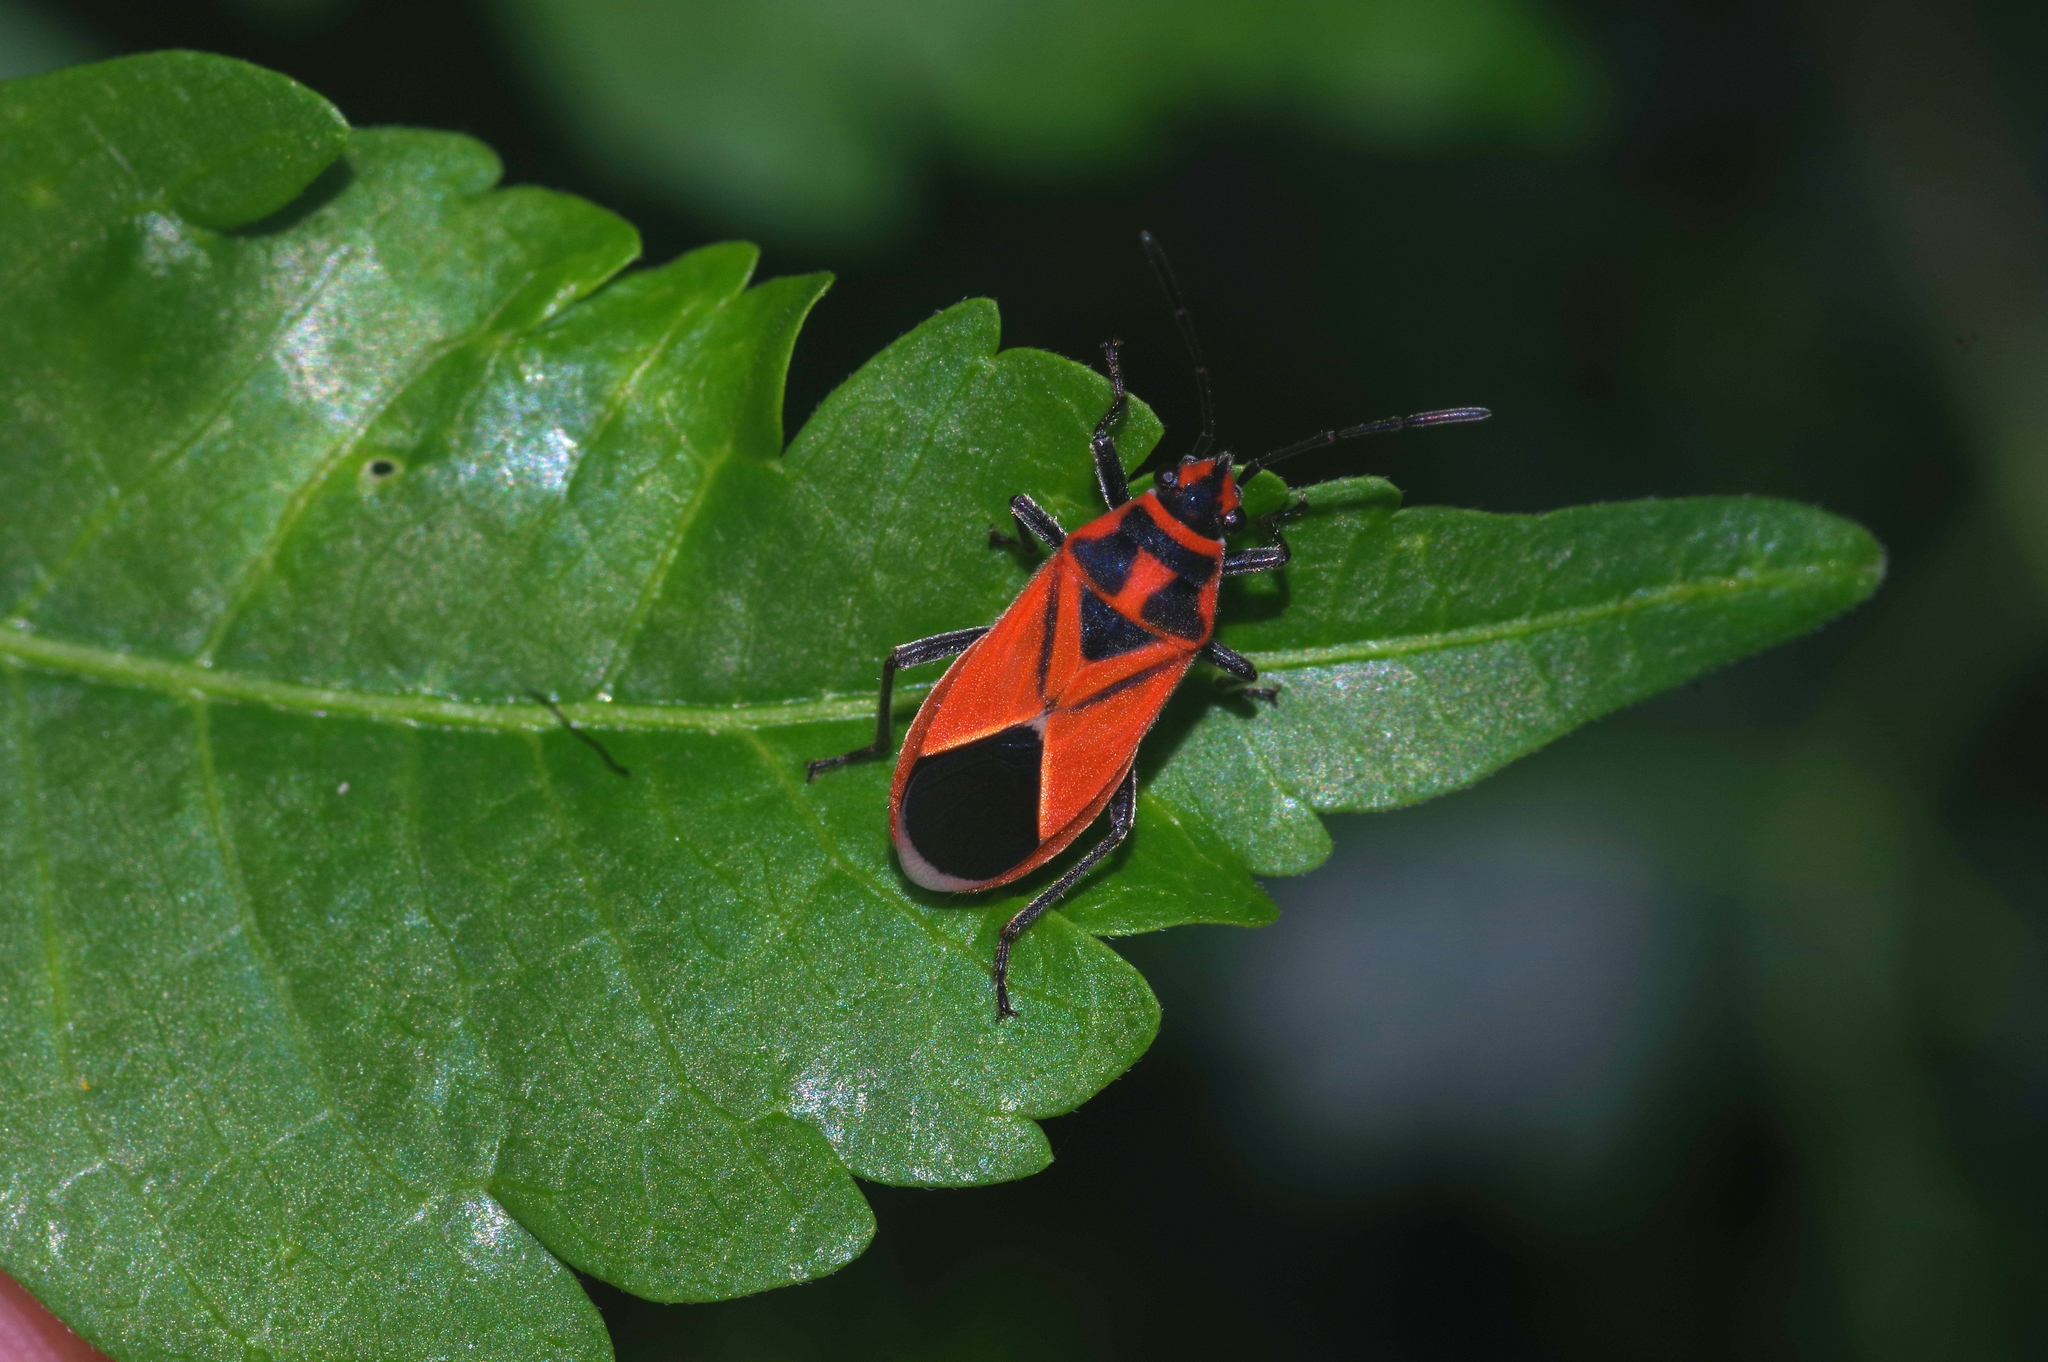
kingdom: Animalia
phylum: Arthropoda
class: Insecta
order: Hemiptera
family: Lygaeidae
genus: Graptostethus
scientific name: Graptostethus servus
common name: Lygaeid bug
